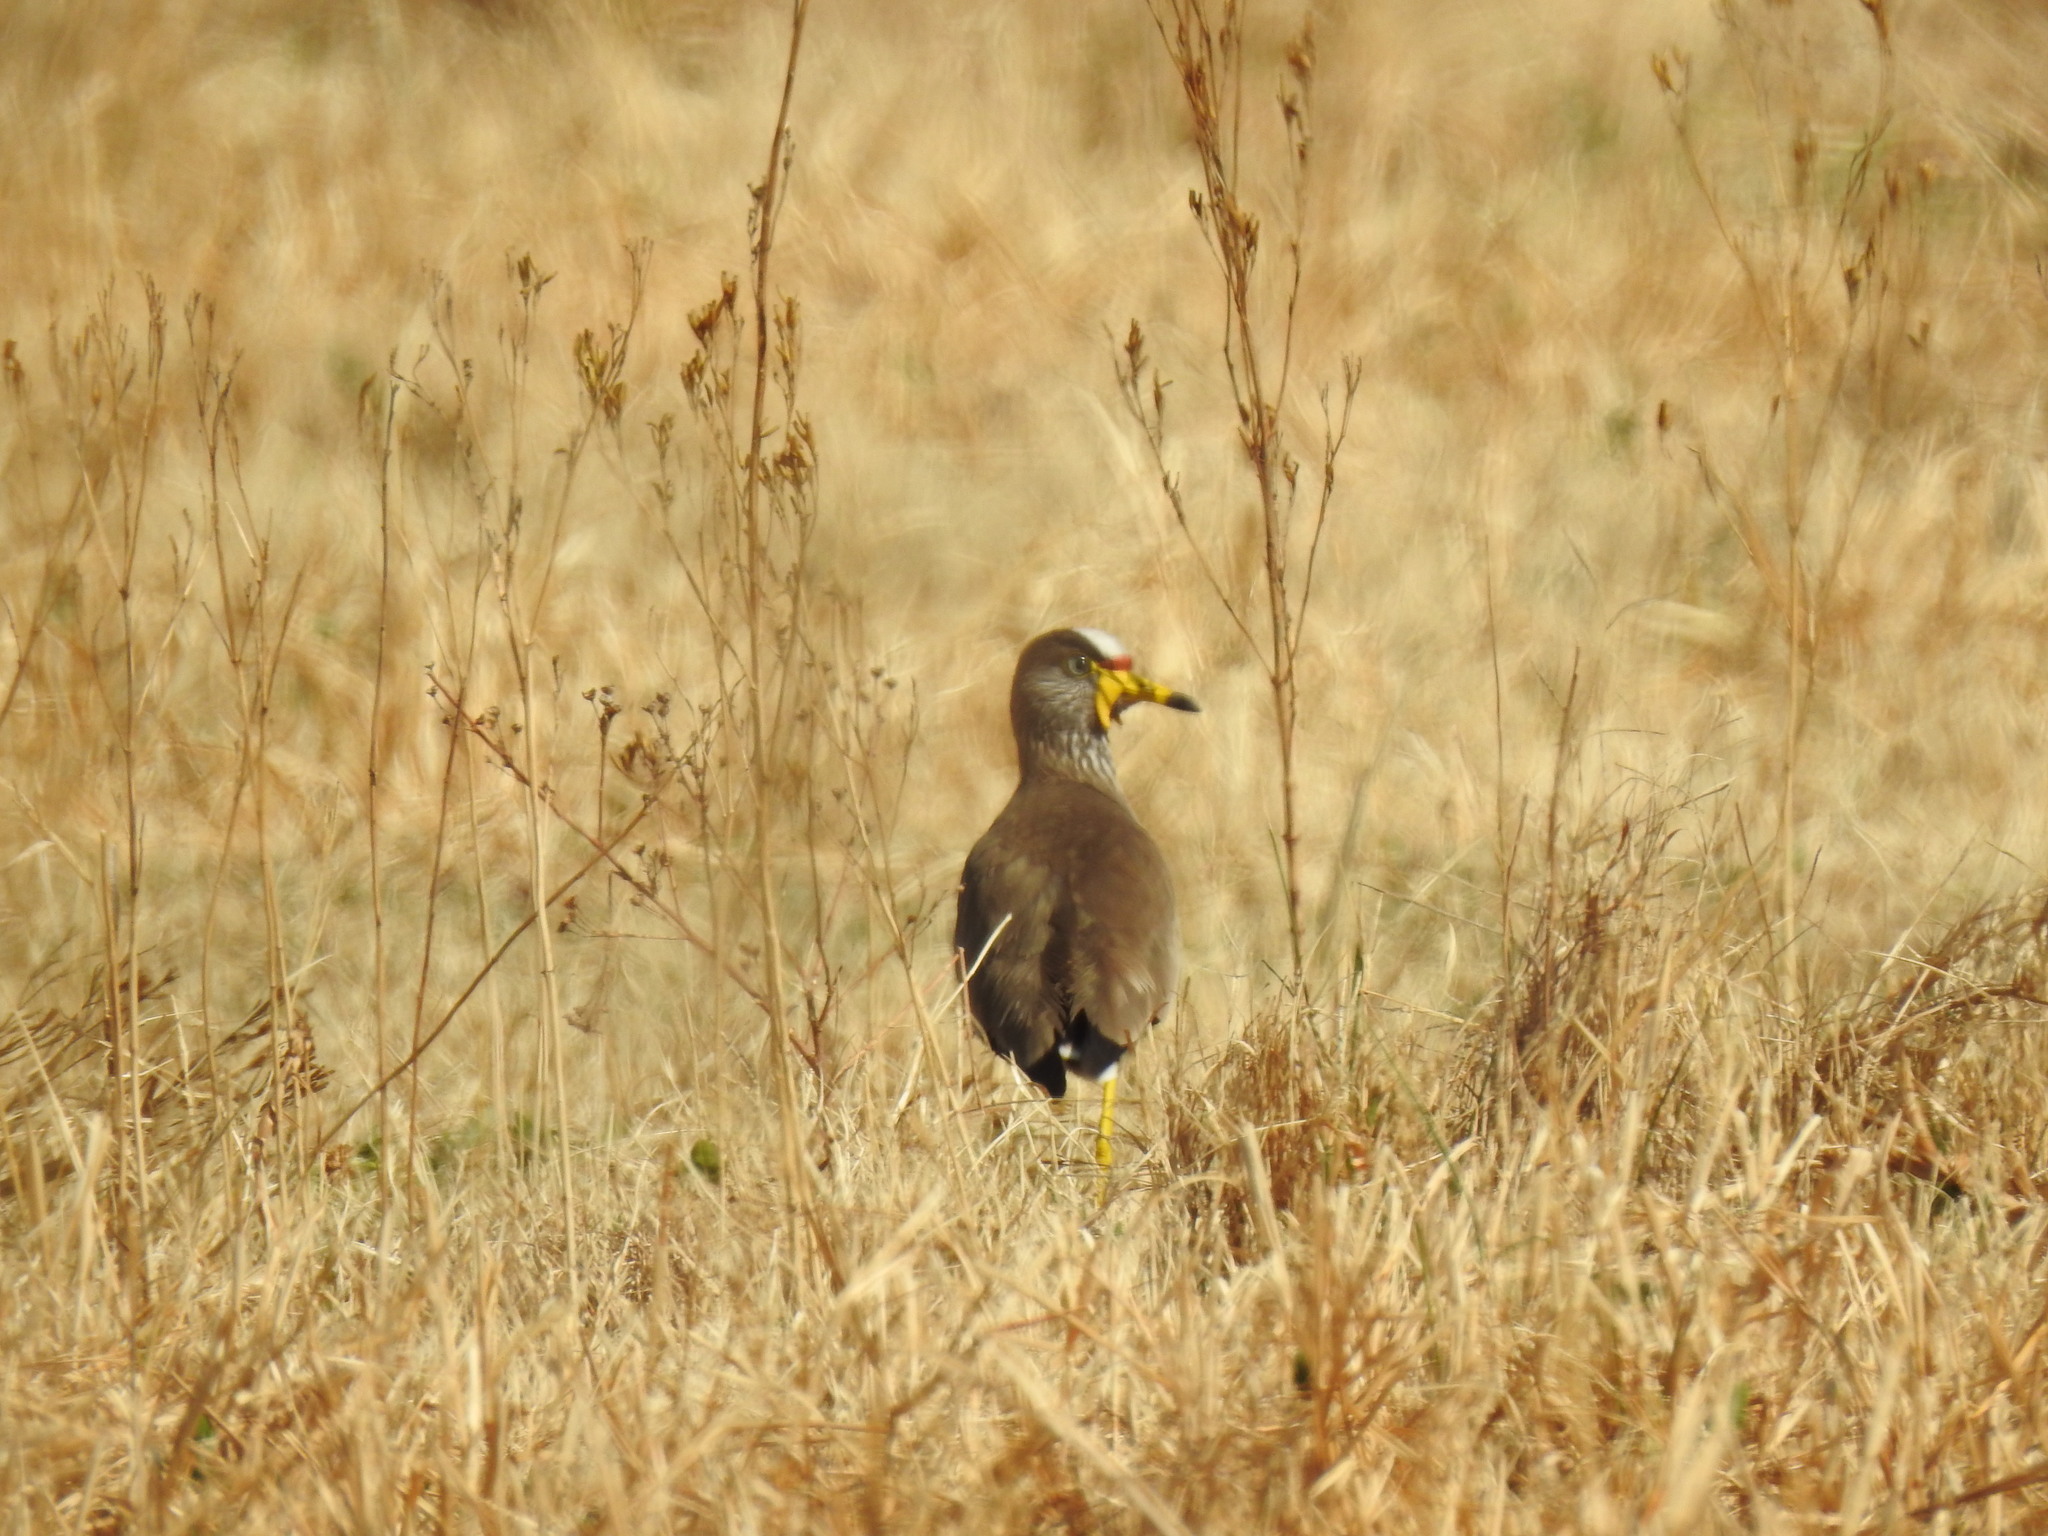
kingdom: Animalia
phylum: Chordata
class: Aves
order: Charadriiformes
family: Charadriidae
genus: Vanellus
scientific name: Vanellus senegallus
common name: African wattled lapwing
